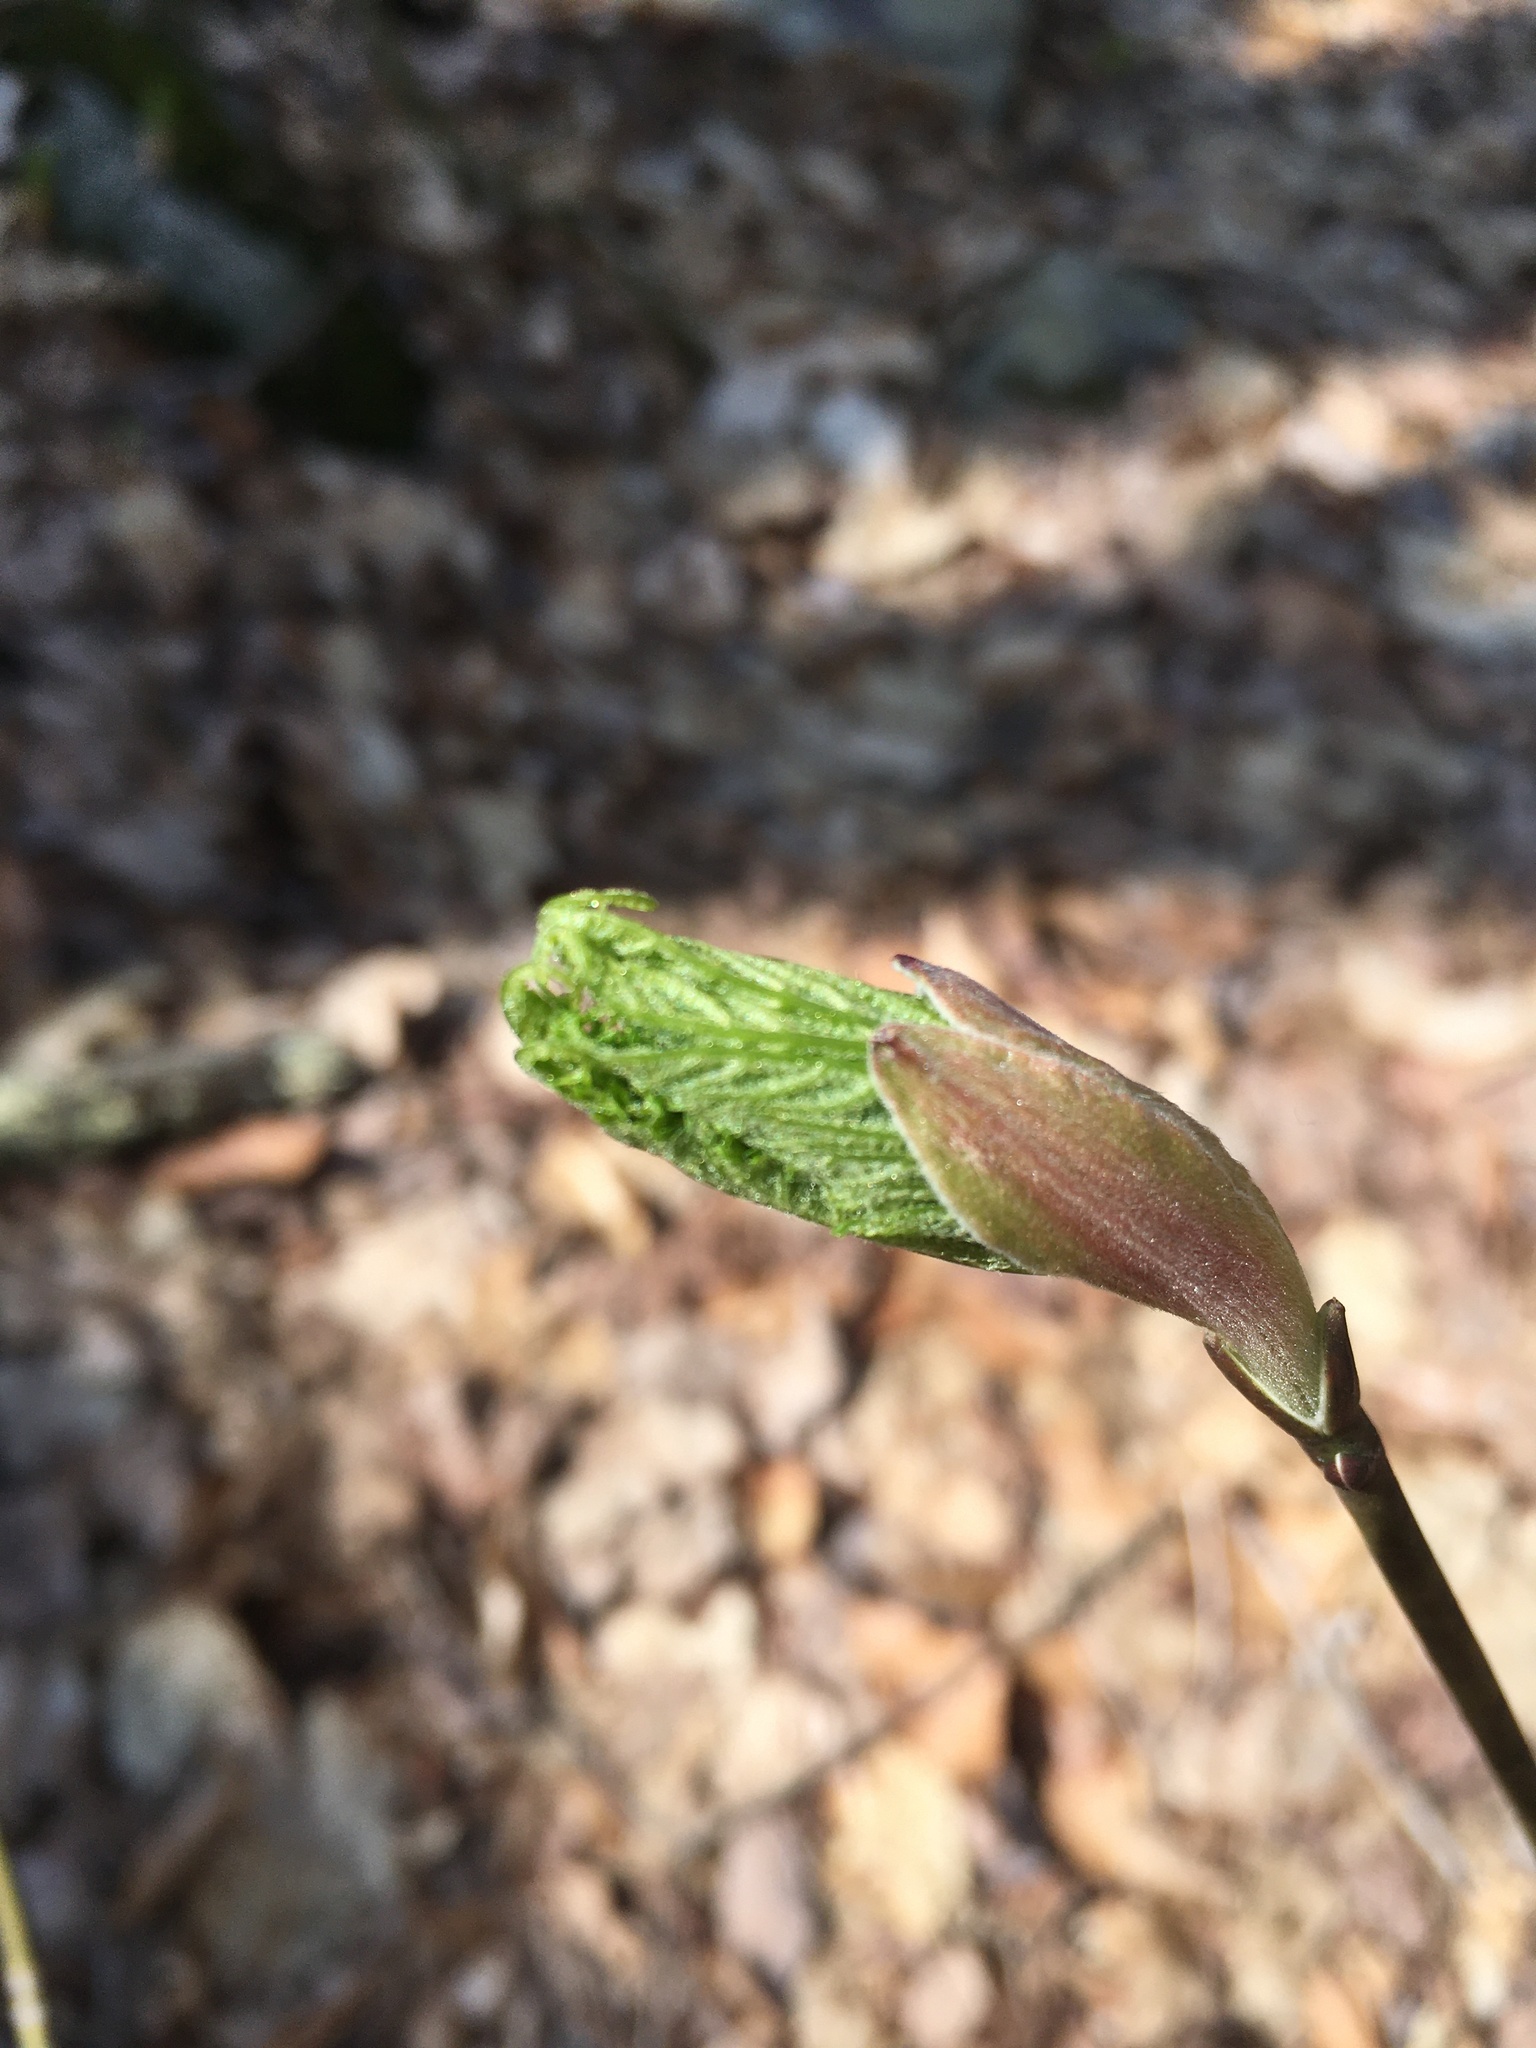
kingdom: Plantae
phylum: Tracheophyta
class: Magnoliopsida
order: Sapindales
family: Sapindaceae
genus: Acer
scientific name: Acer pensylvanicum
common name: Moosewood
